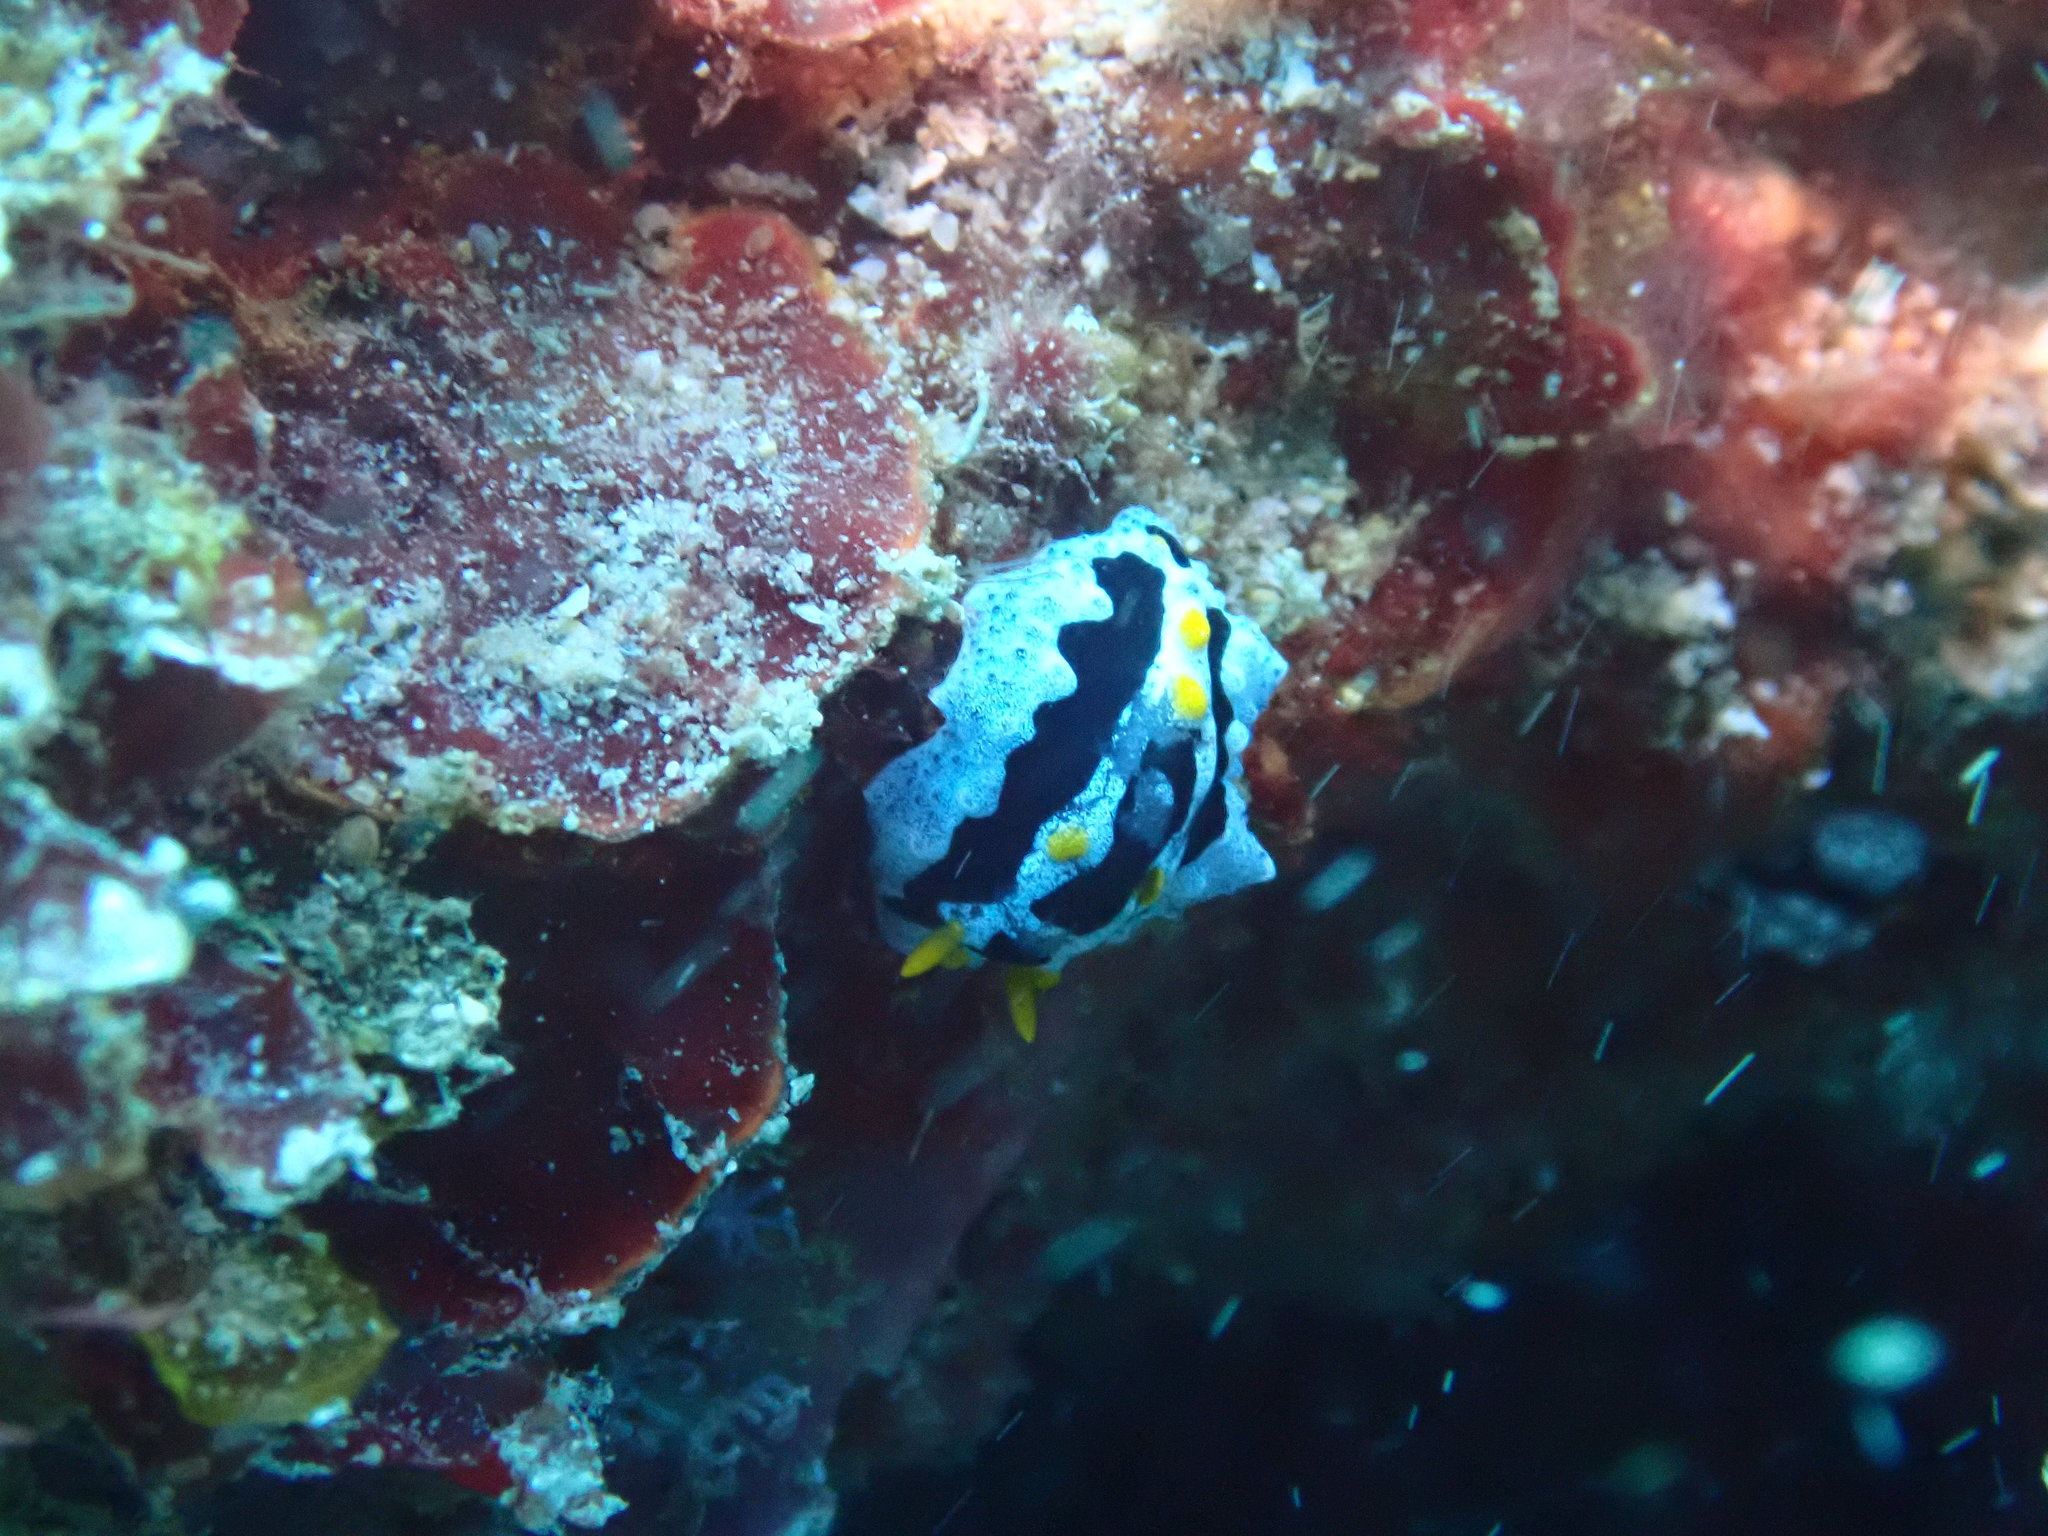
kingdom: Animalia
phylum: Mollusca
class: Gastropoda
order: Nudibranchia
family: Phyllidiidae
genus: Phyllidia
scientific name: Phyllidia coelestis
